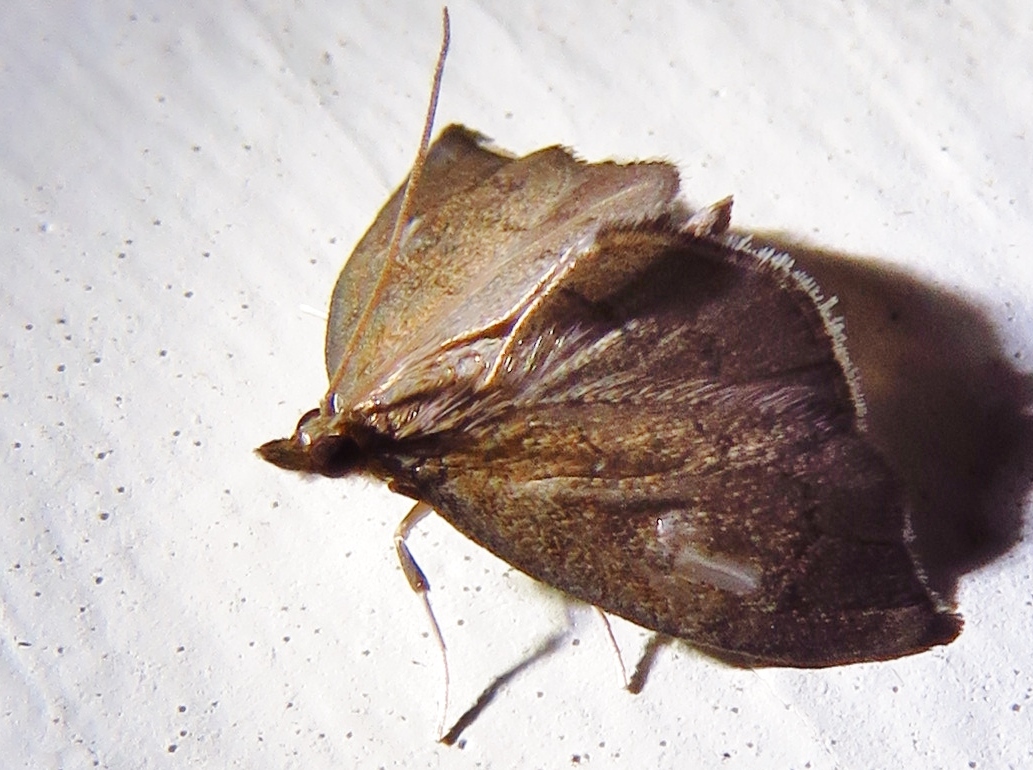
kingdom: Animalia
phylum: Arthropoda
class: Insecta
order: Lepidoptera
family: Crambidae
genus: Perispasta
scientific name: Perispasta caeculalis
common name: Titian peale's moth
